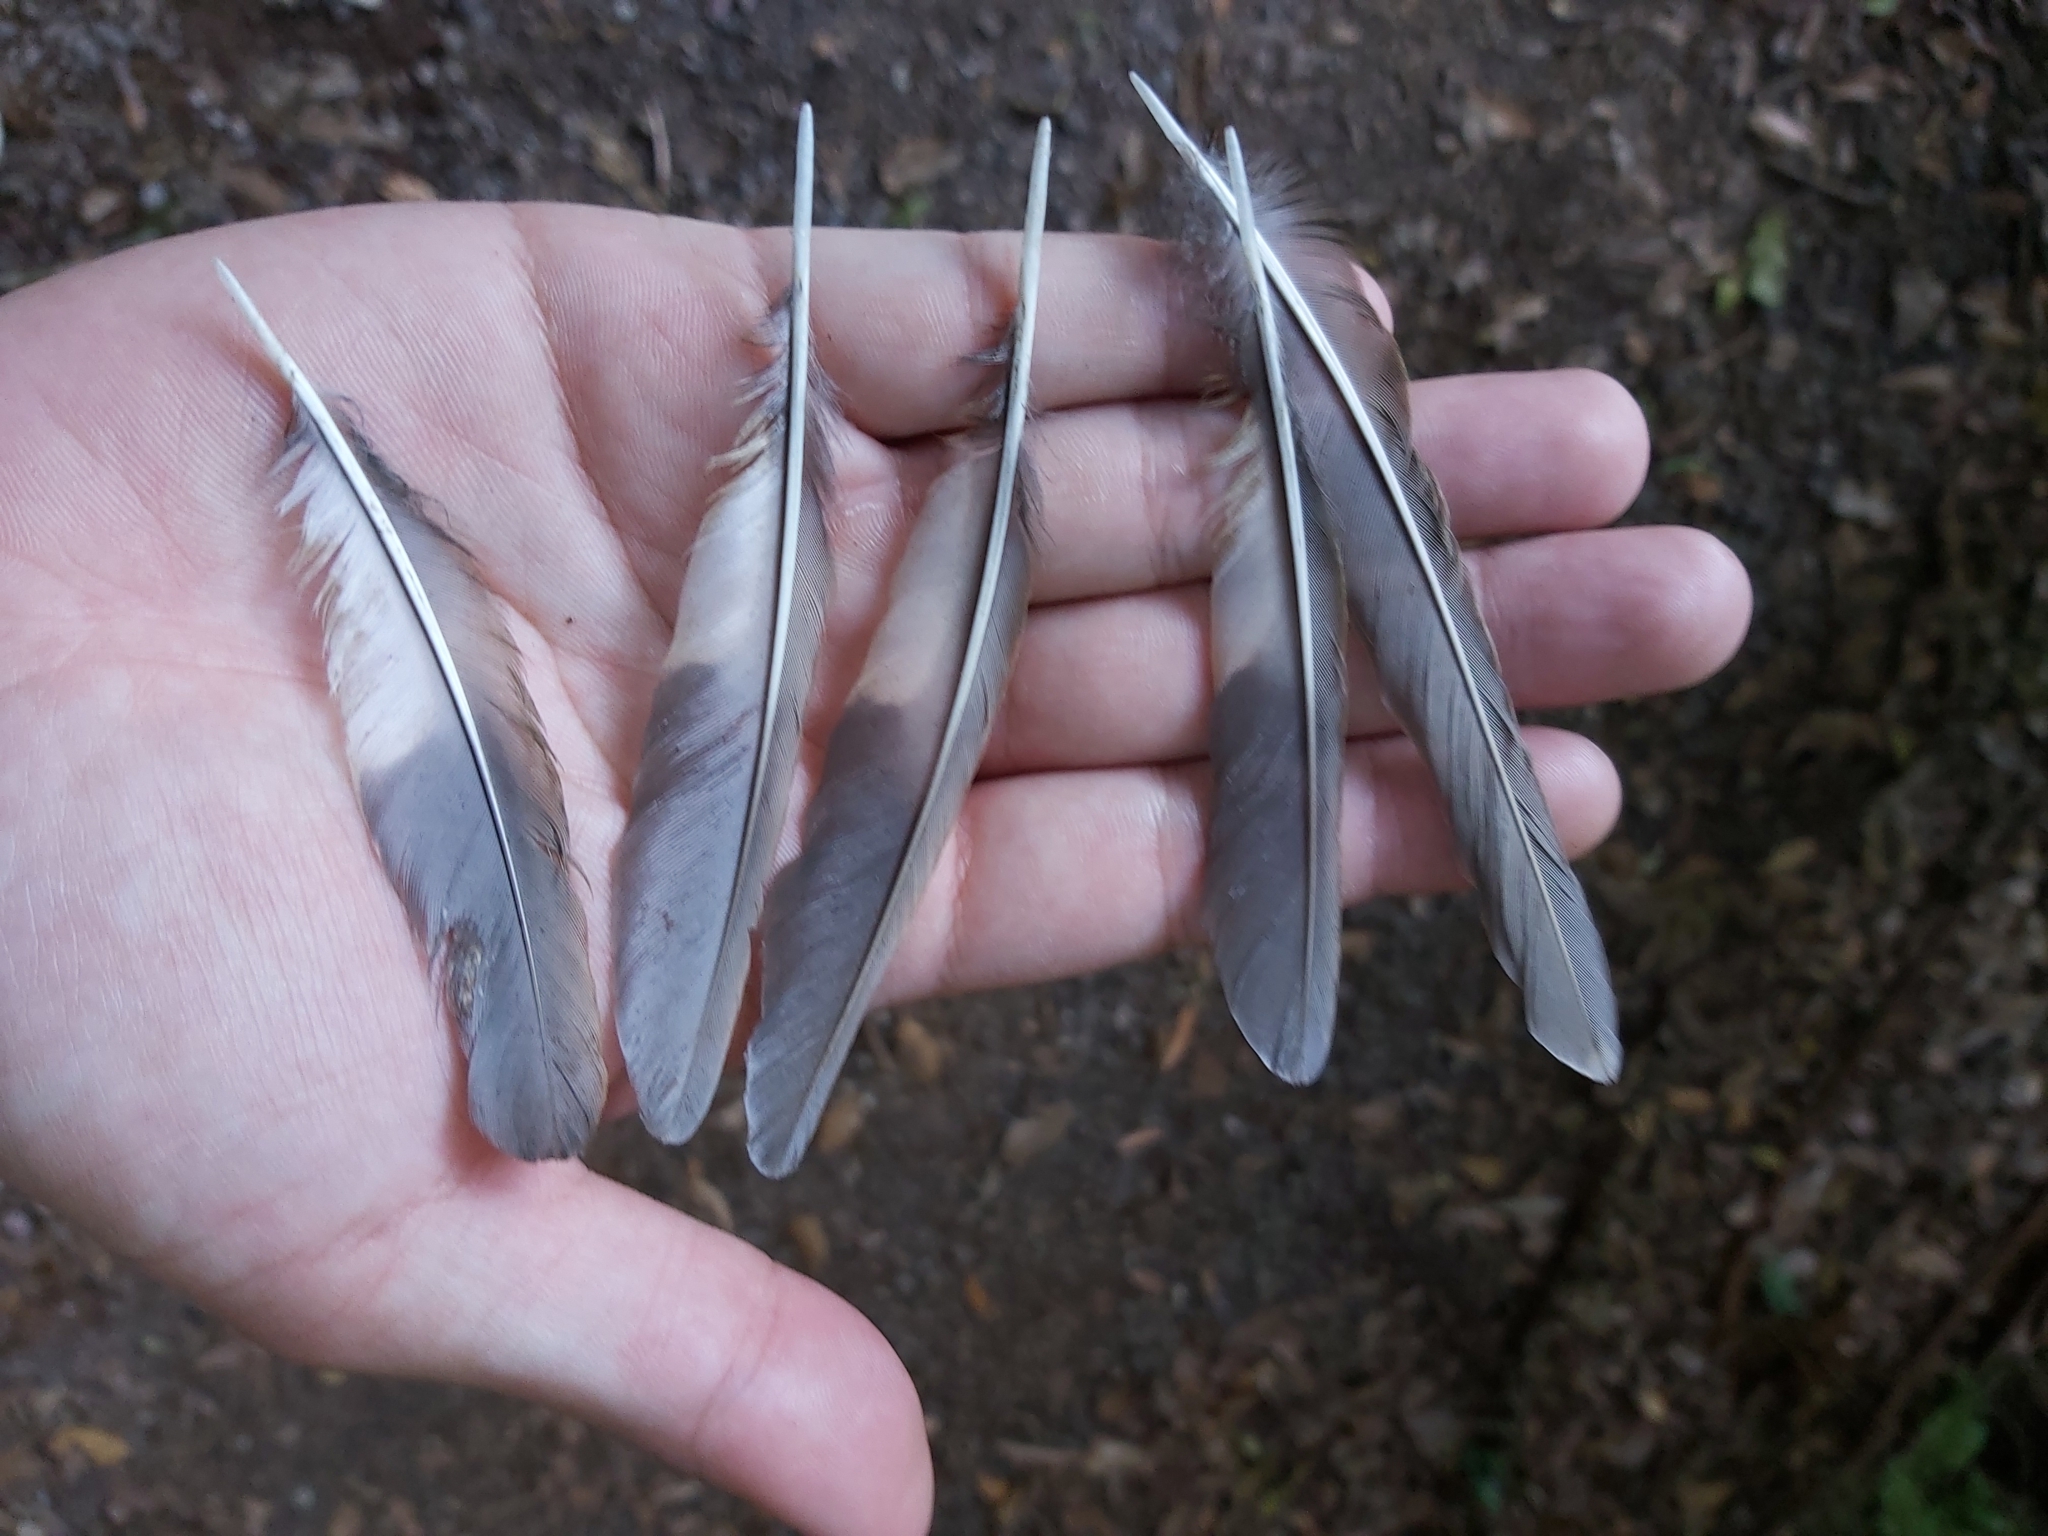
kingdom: Animalia
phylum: Chordata
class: Aves
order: Passeriformes
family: Turdidae
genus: Zoothera
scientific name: Zoothera lunulata
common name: Bassian thrush
